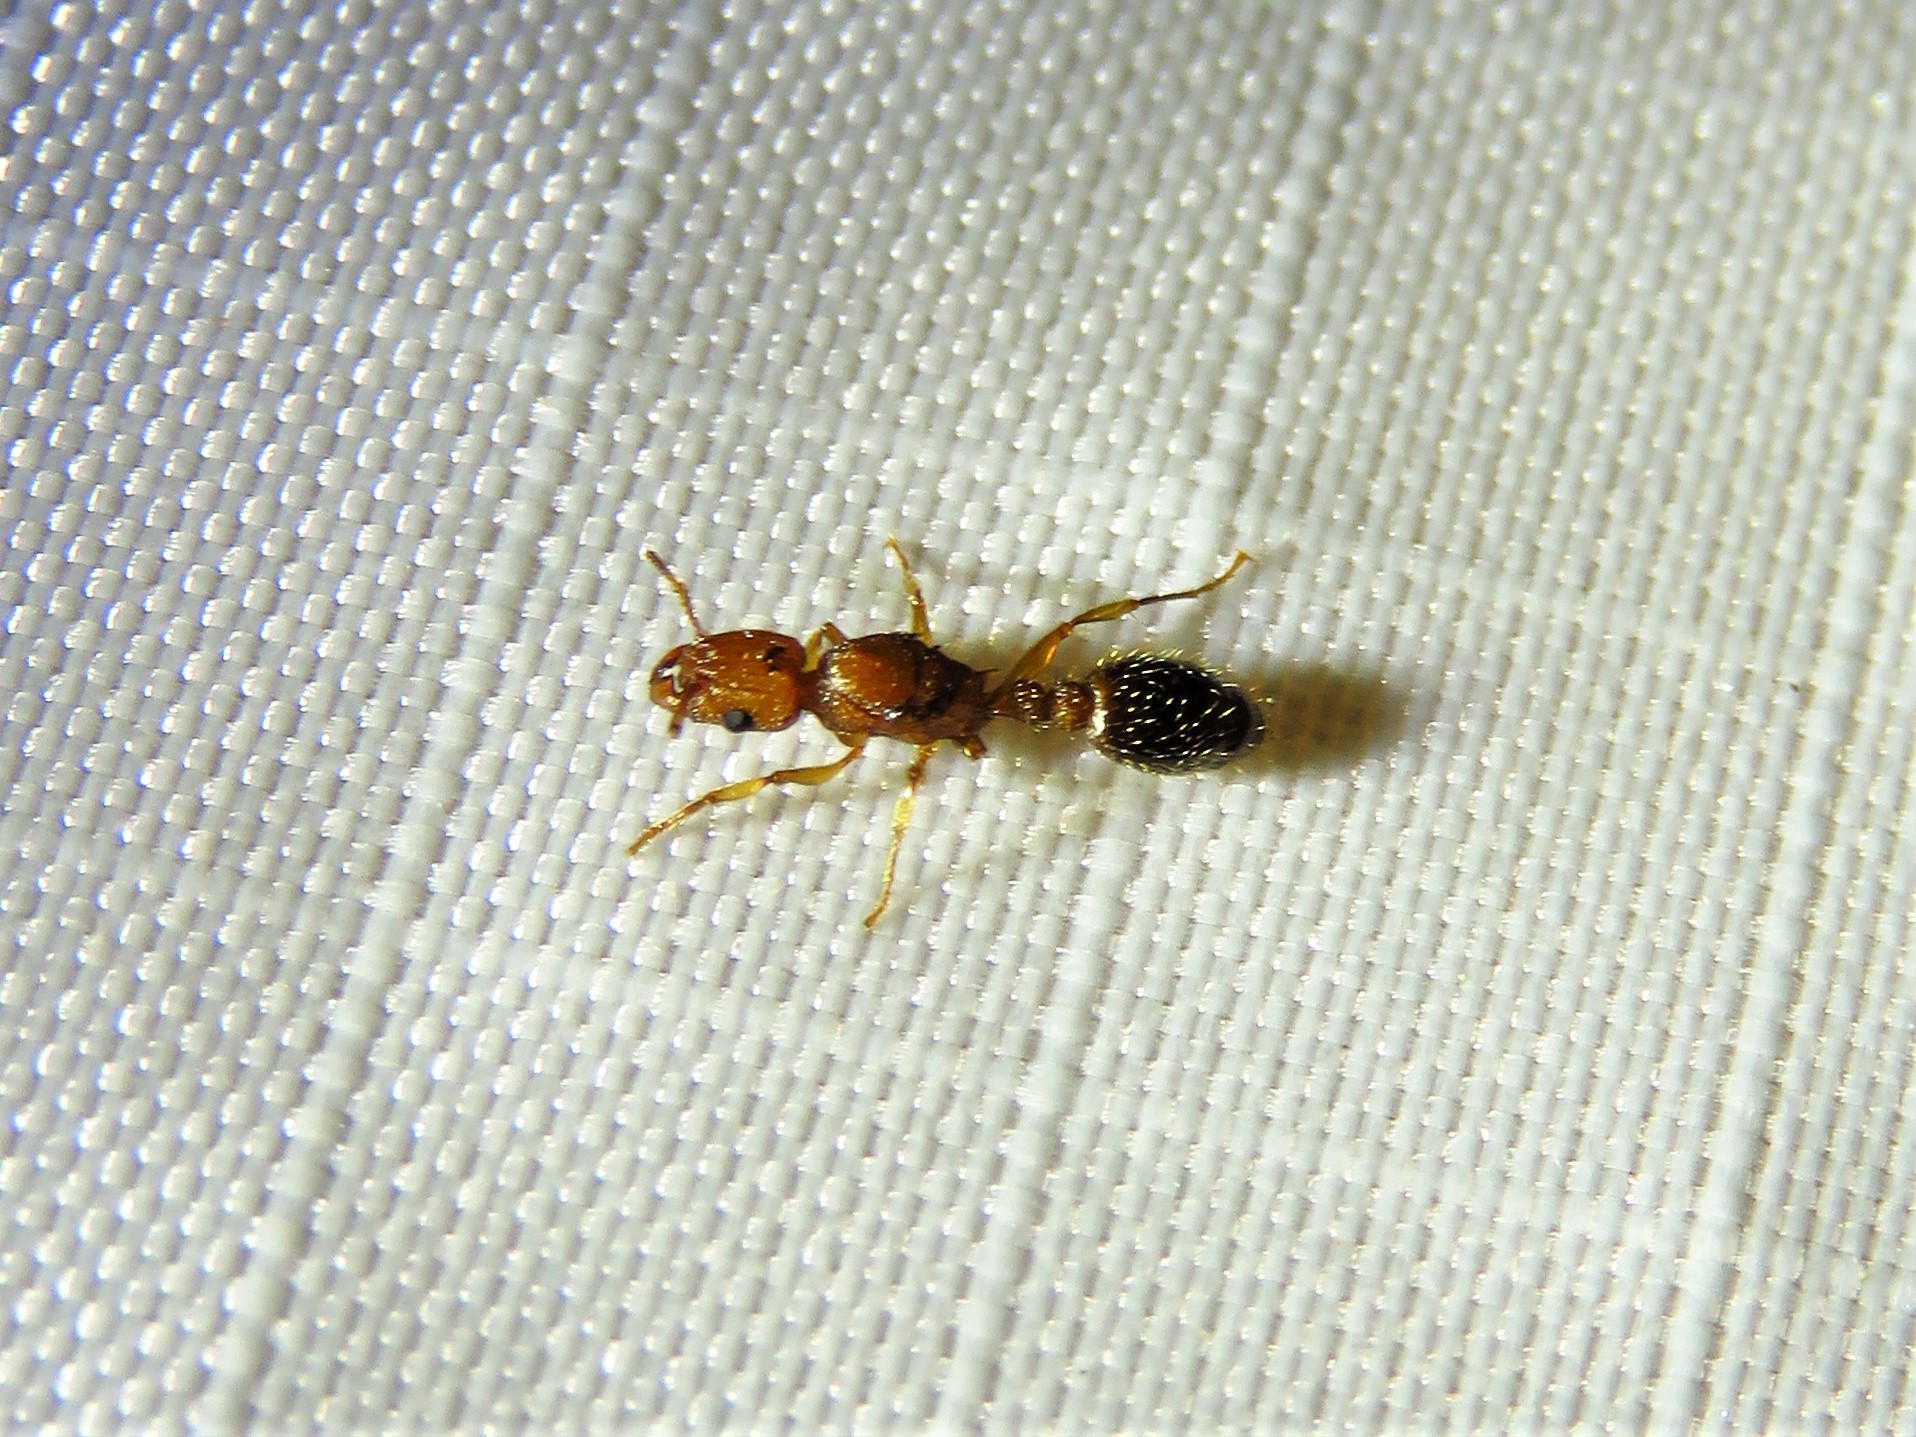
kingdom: Animalia
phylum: Arthropoda
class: Insecta
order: Hymenoptera
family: Formicidae
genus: Tetramorium
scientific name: Tetramorium bicarinatum
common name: Guinea ant
